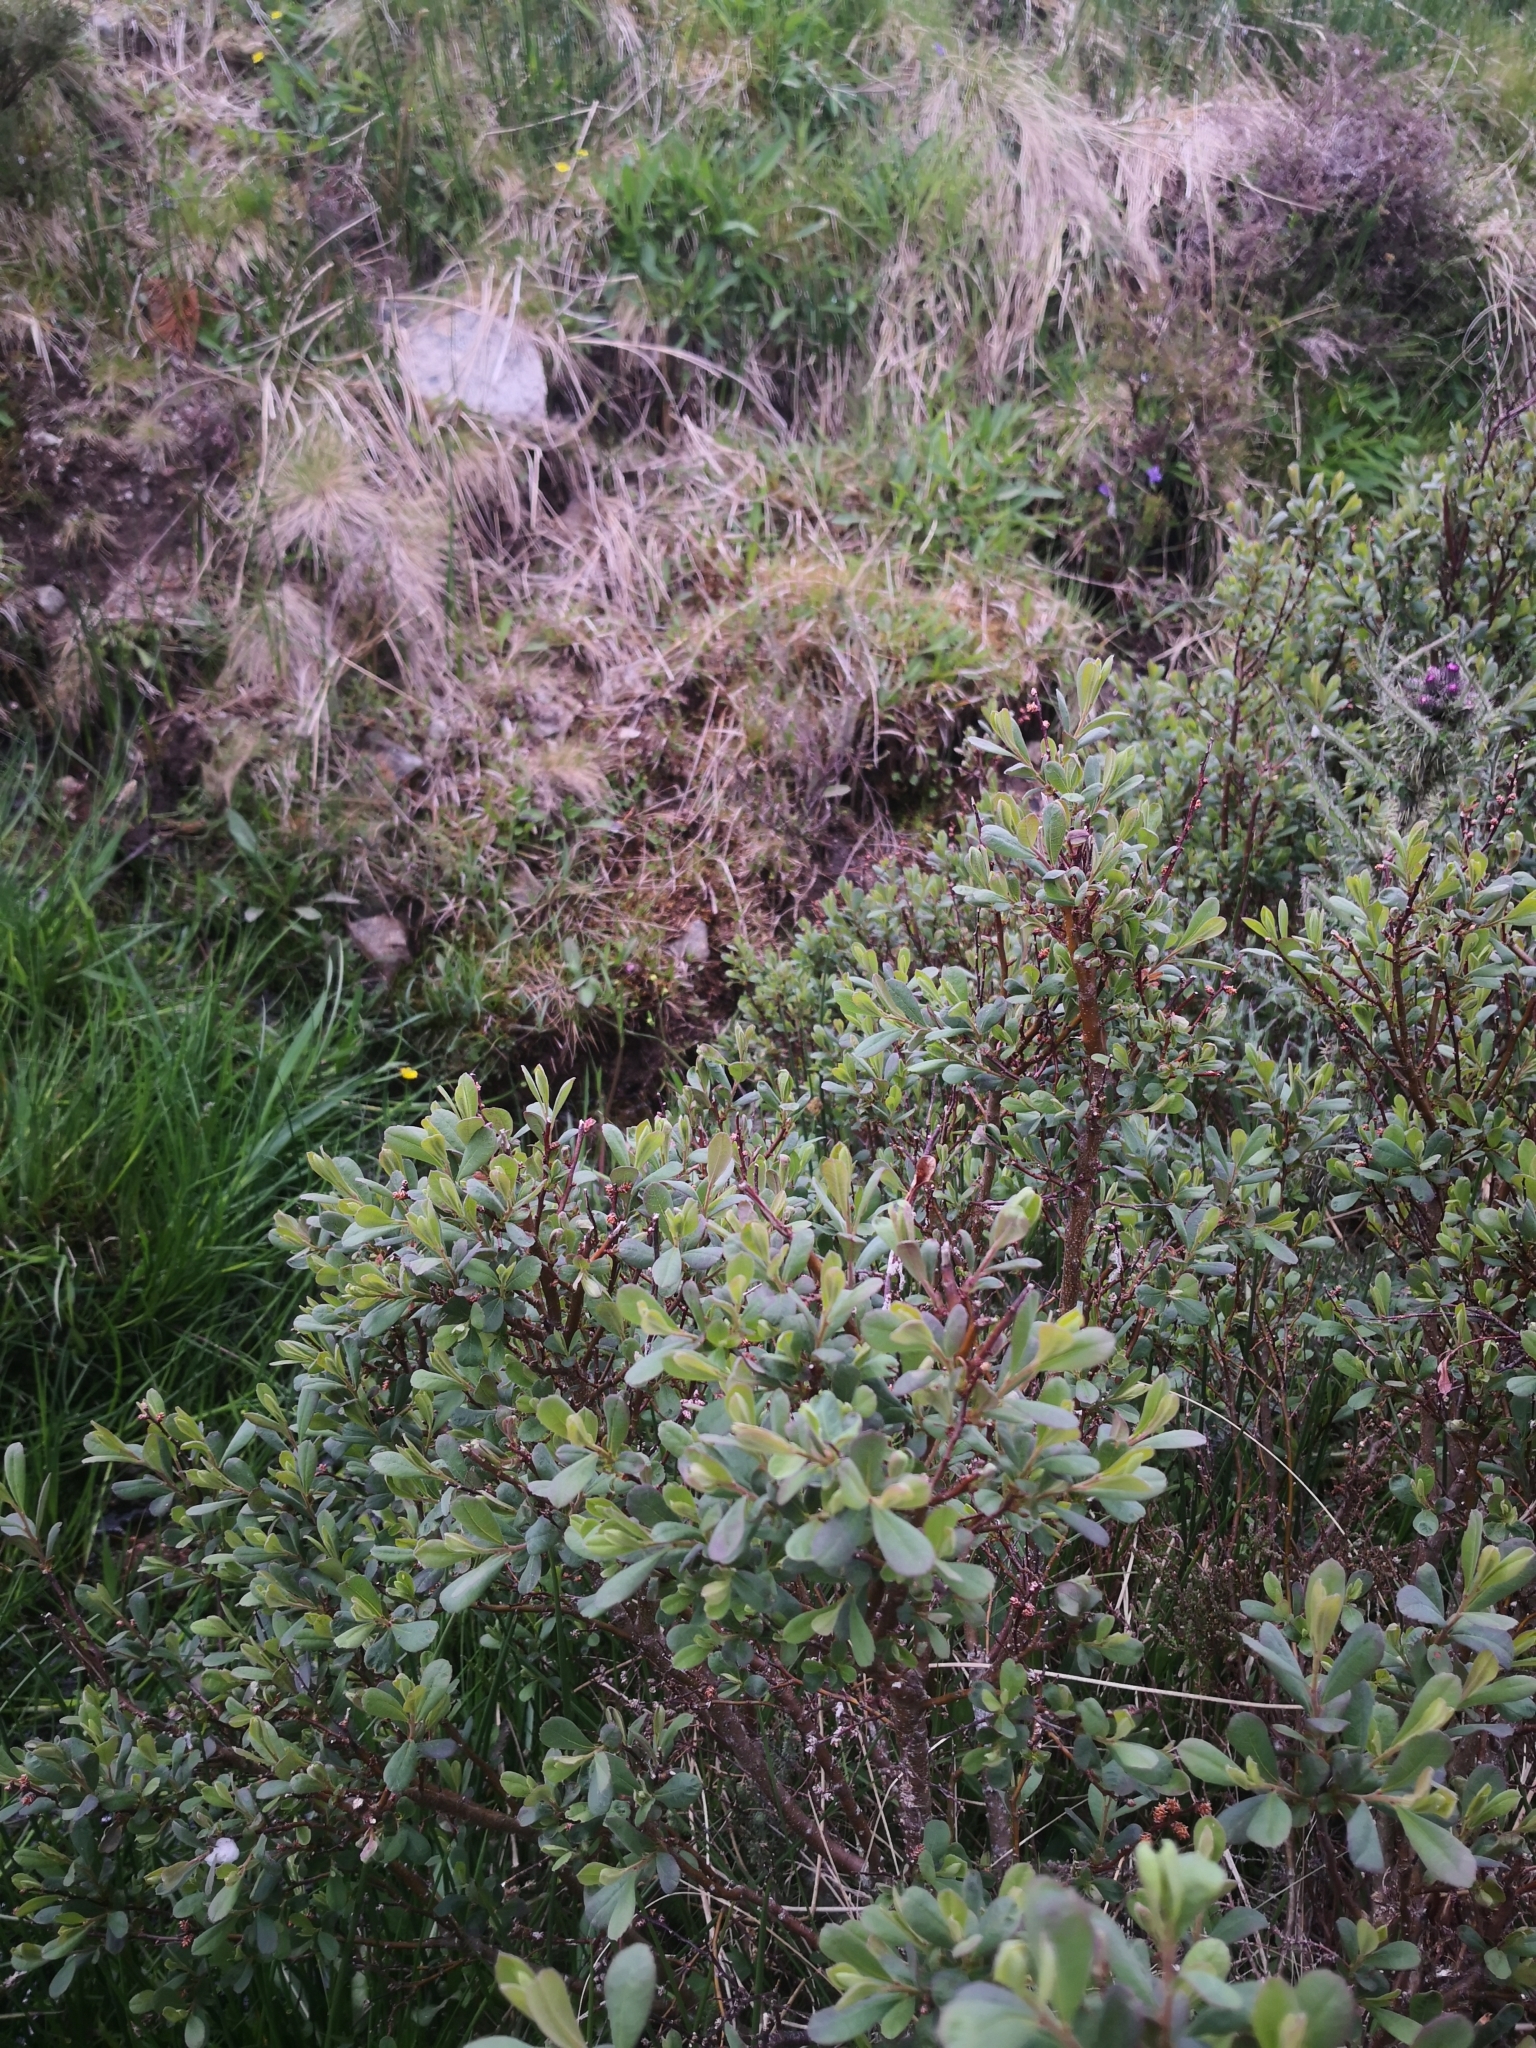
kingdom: Plantae
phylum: Tracheophyta
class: Magnoliopsida
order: Fagales
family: Myricaceae
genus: Myrica
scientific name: Myrica gale
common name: Sweet gale
